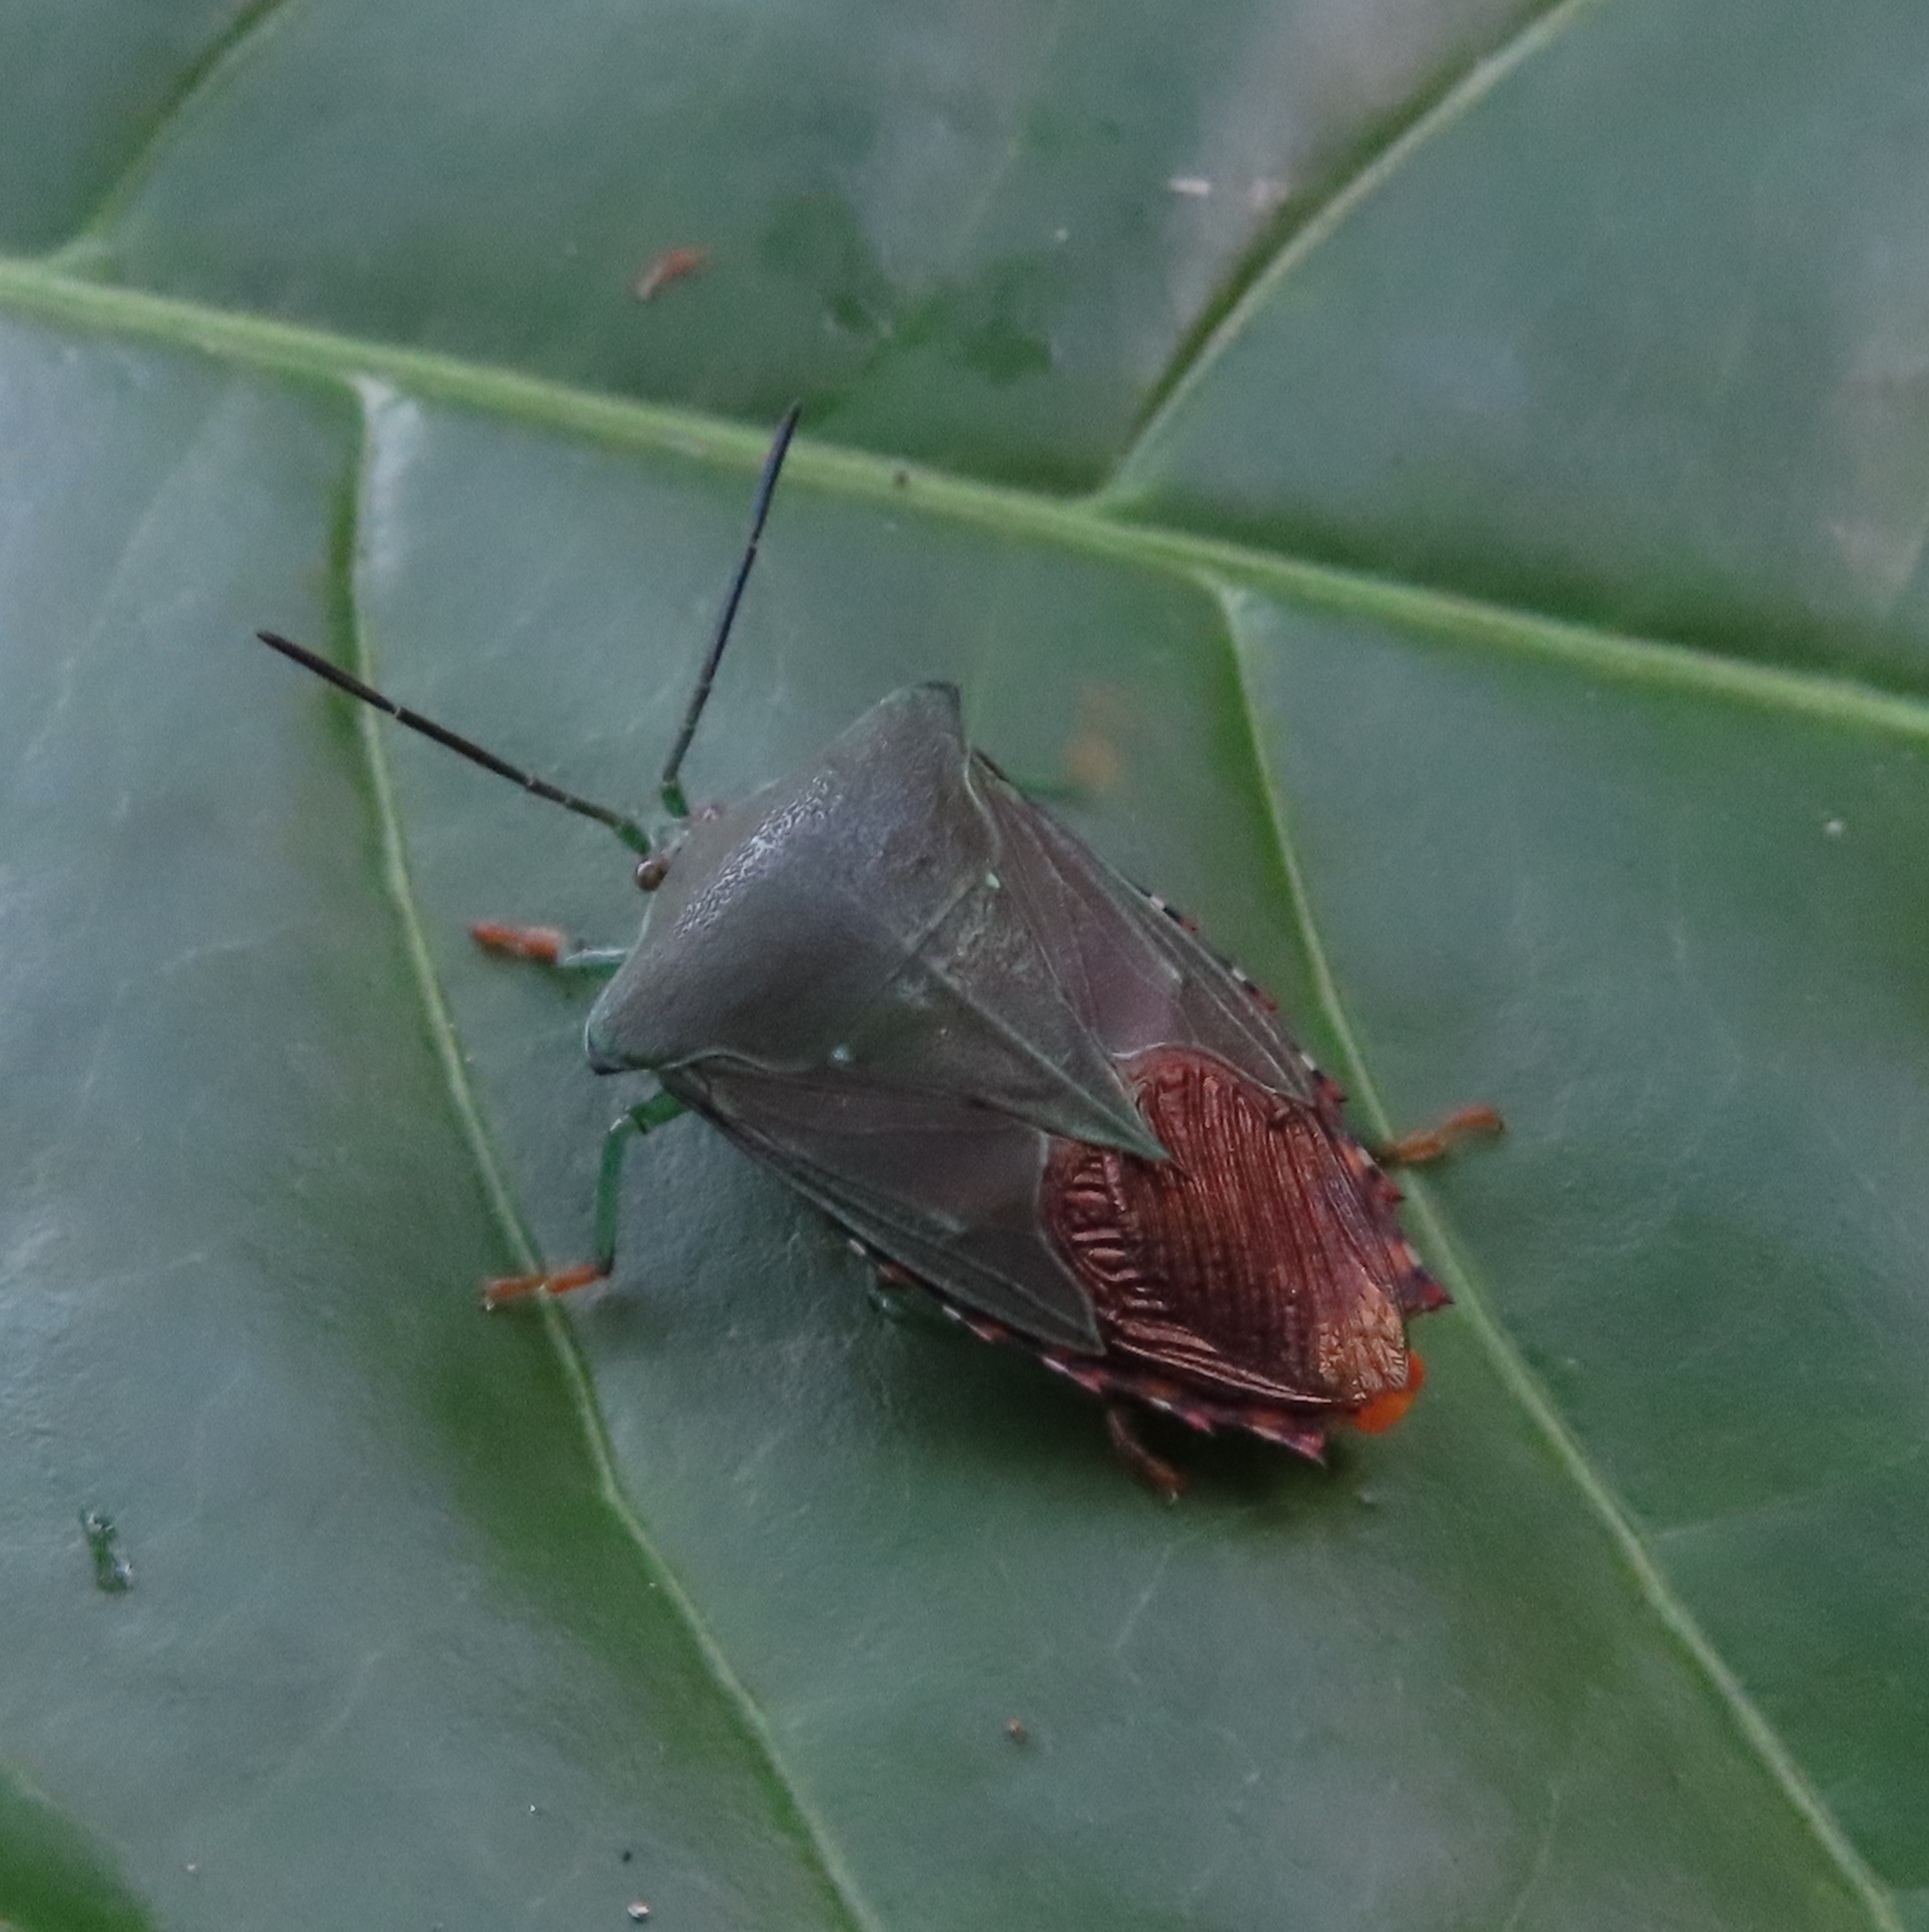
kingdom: Animalia
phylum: Arthropoda
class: Insecta
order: Hemiptera
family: Tessaratomidae
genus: Piezosternum
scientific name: Piezosternum subulatum
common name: Paula's giant shield bug
